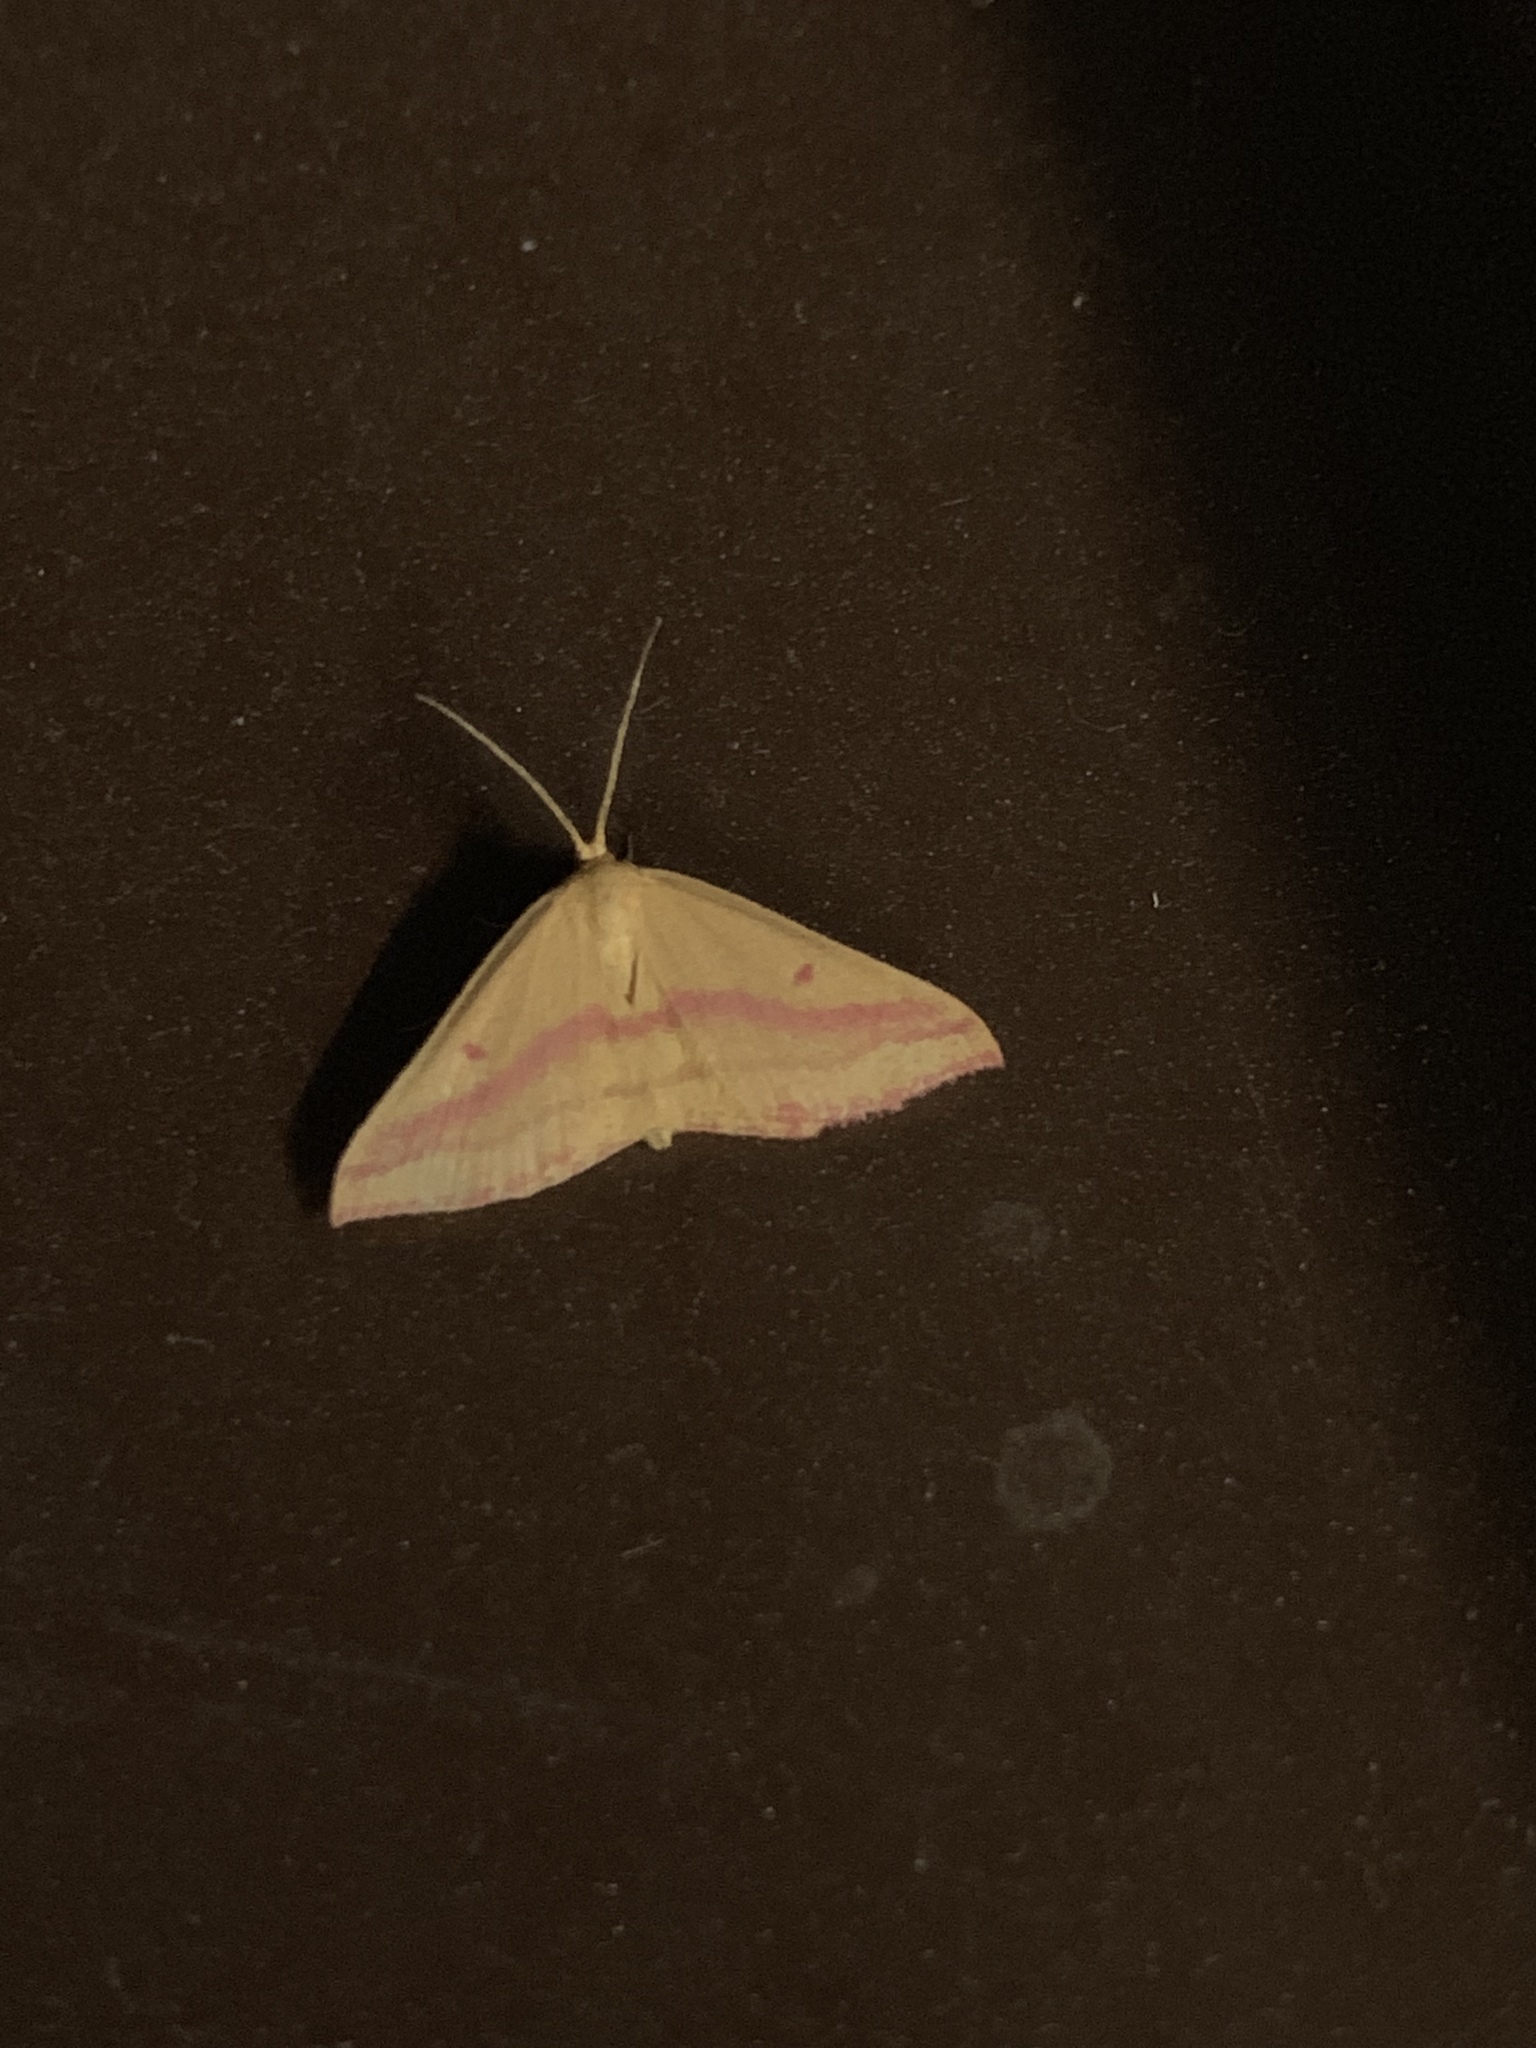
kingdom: Animalia
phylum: Arthropoda
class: Insecta
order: Lepidoptera
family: Geometridae
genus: Haematopis
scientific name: Haematopis grataria
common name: Chickweed geometer
